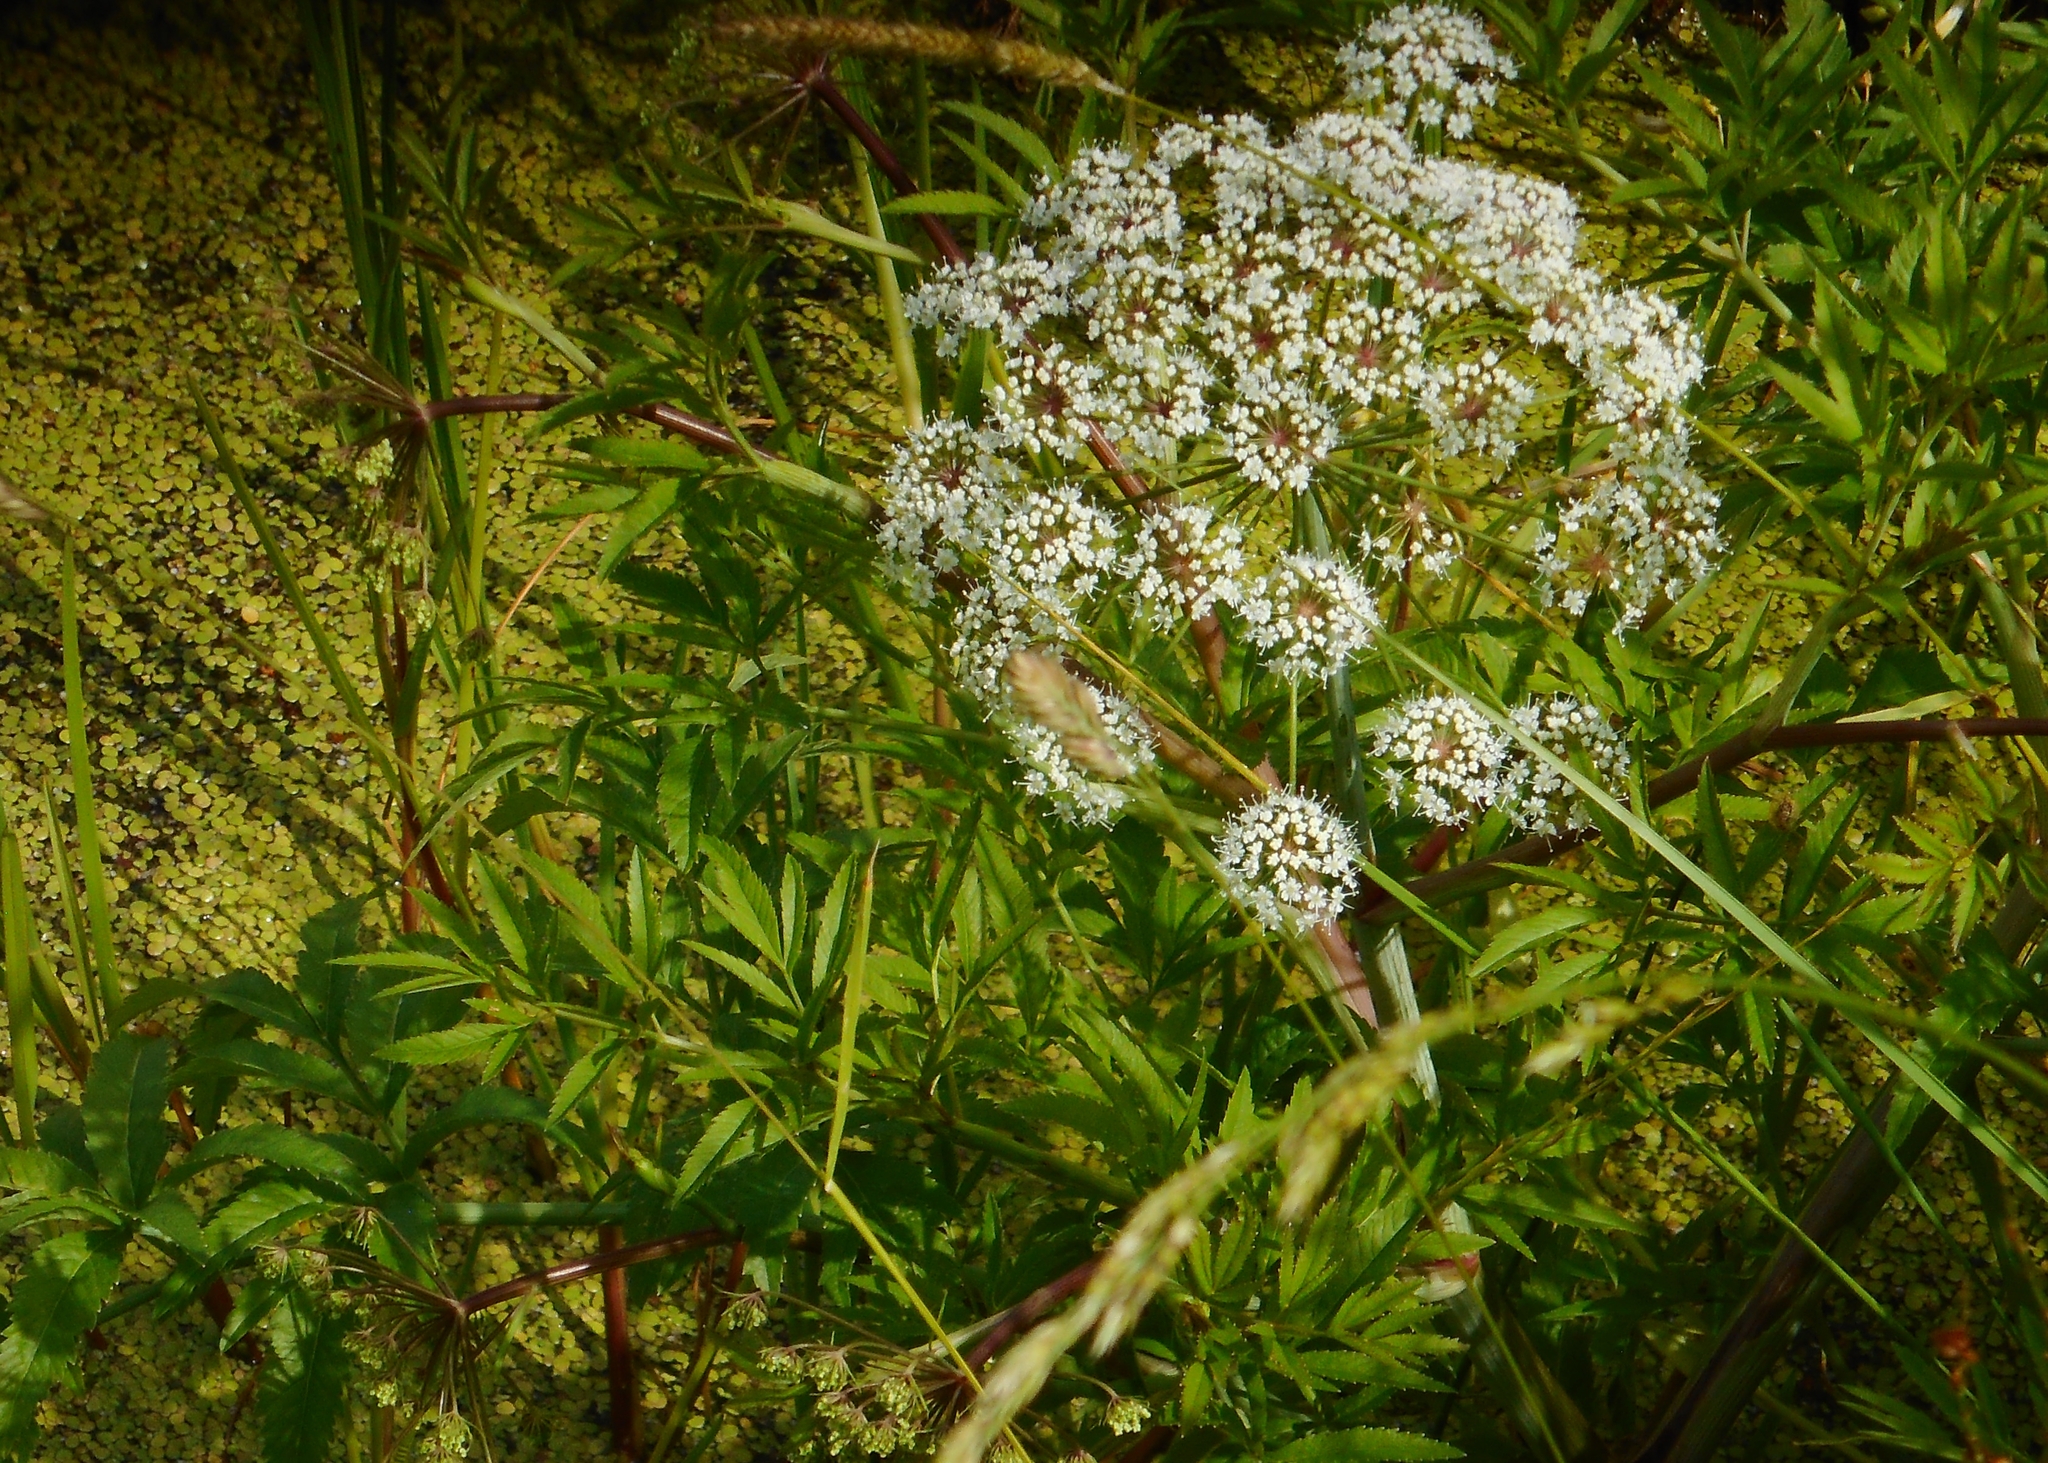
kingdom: Plantae
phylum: Tracheophyta
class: Magnoliopsida
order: Apiales
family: Apiaceae
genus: Cicuta
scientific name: Cicuta virosa
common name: Cowbane
